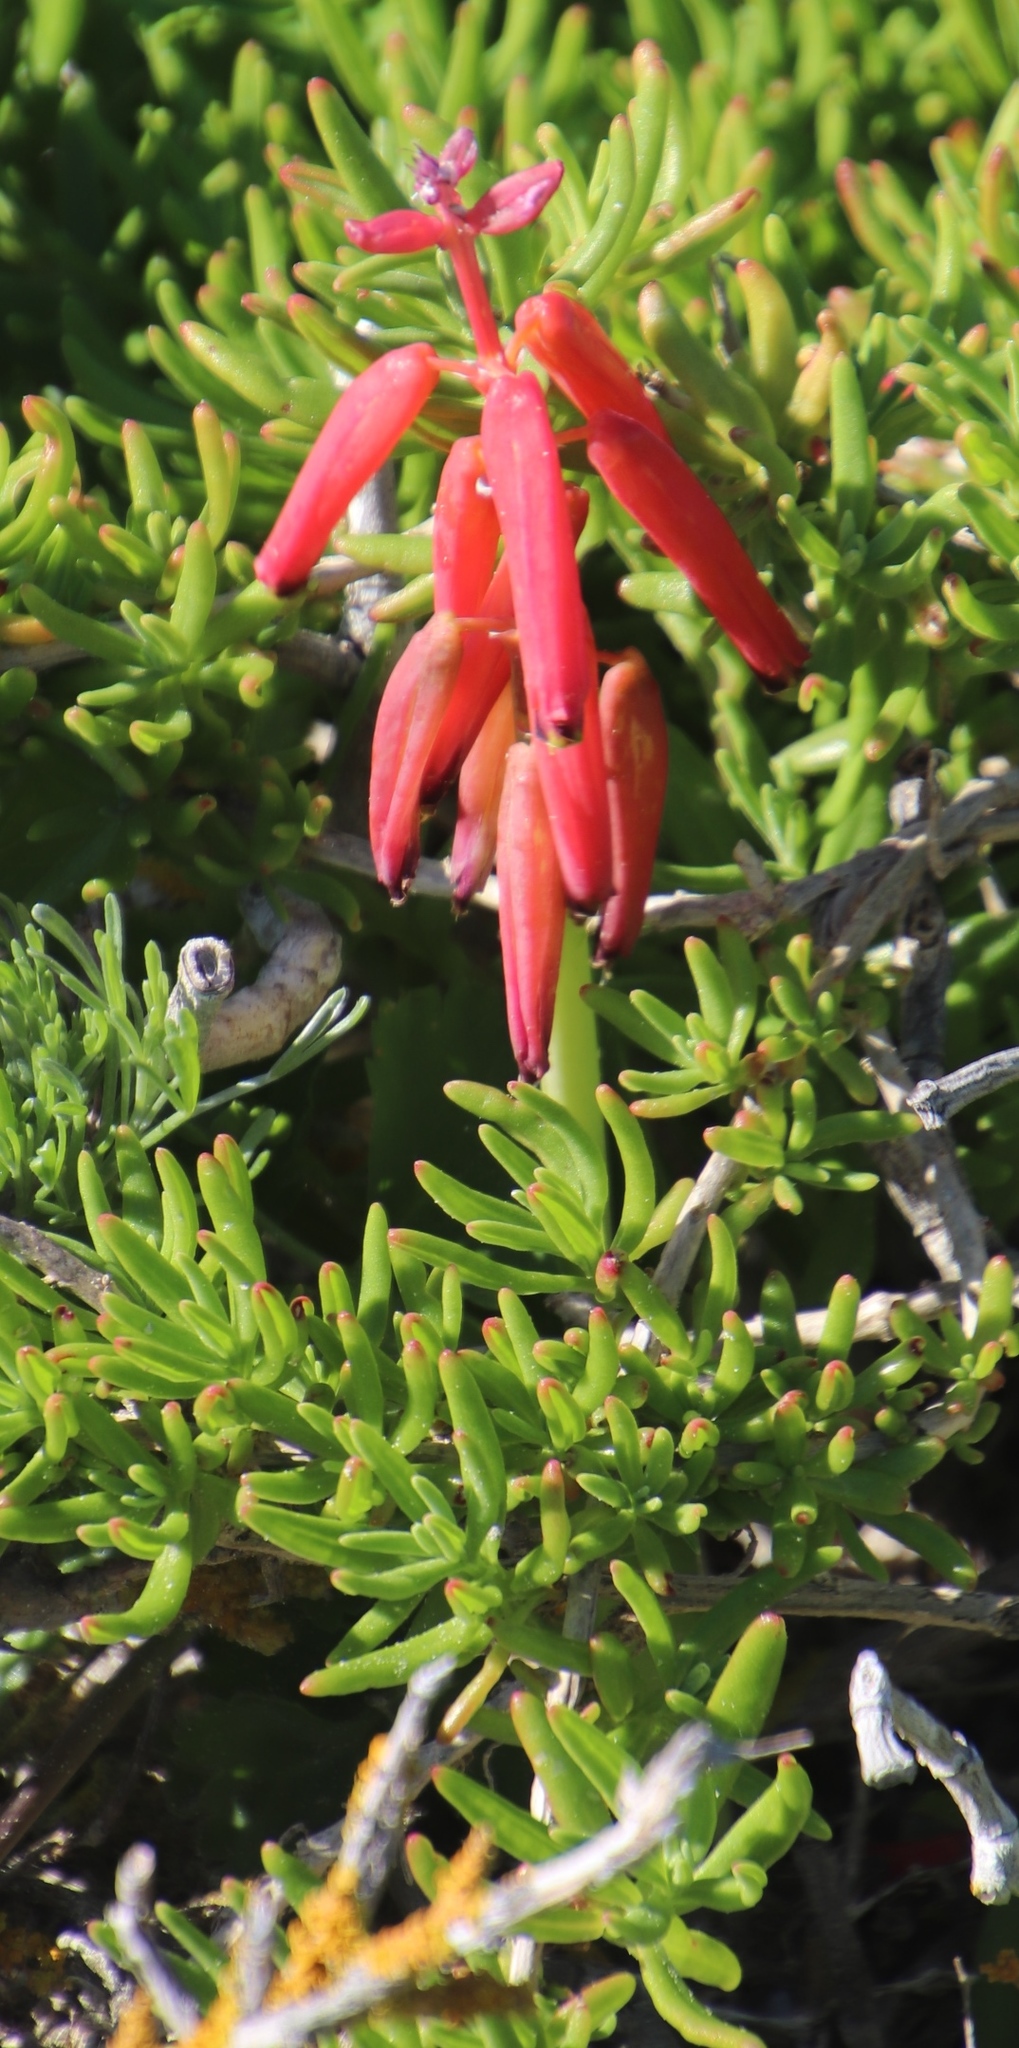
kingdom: Plantae
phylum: Tracheophyta
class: Liliopsida
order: Asparagales
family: Asparagaceae
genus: Lachenalia
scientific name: Lachenalia bulbifera
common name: Red lachenalia
